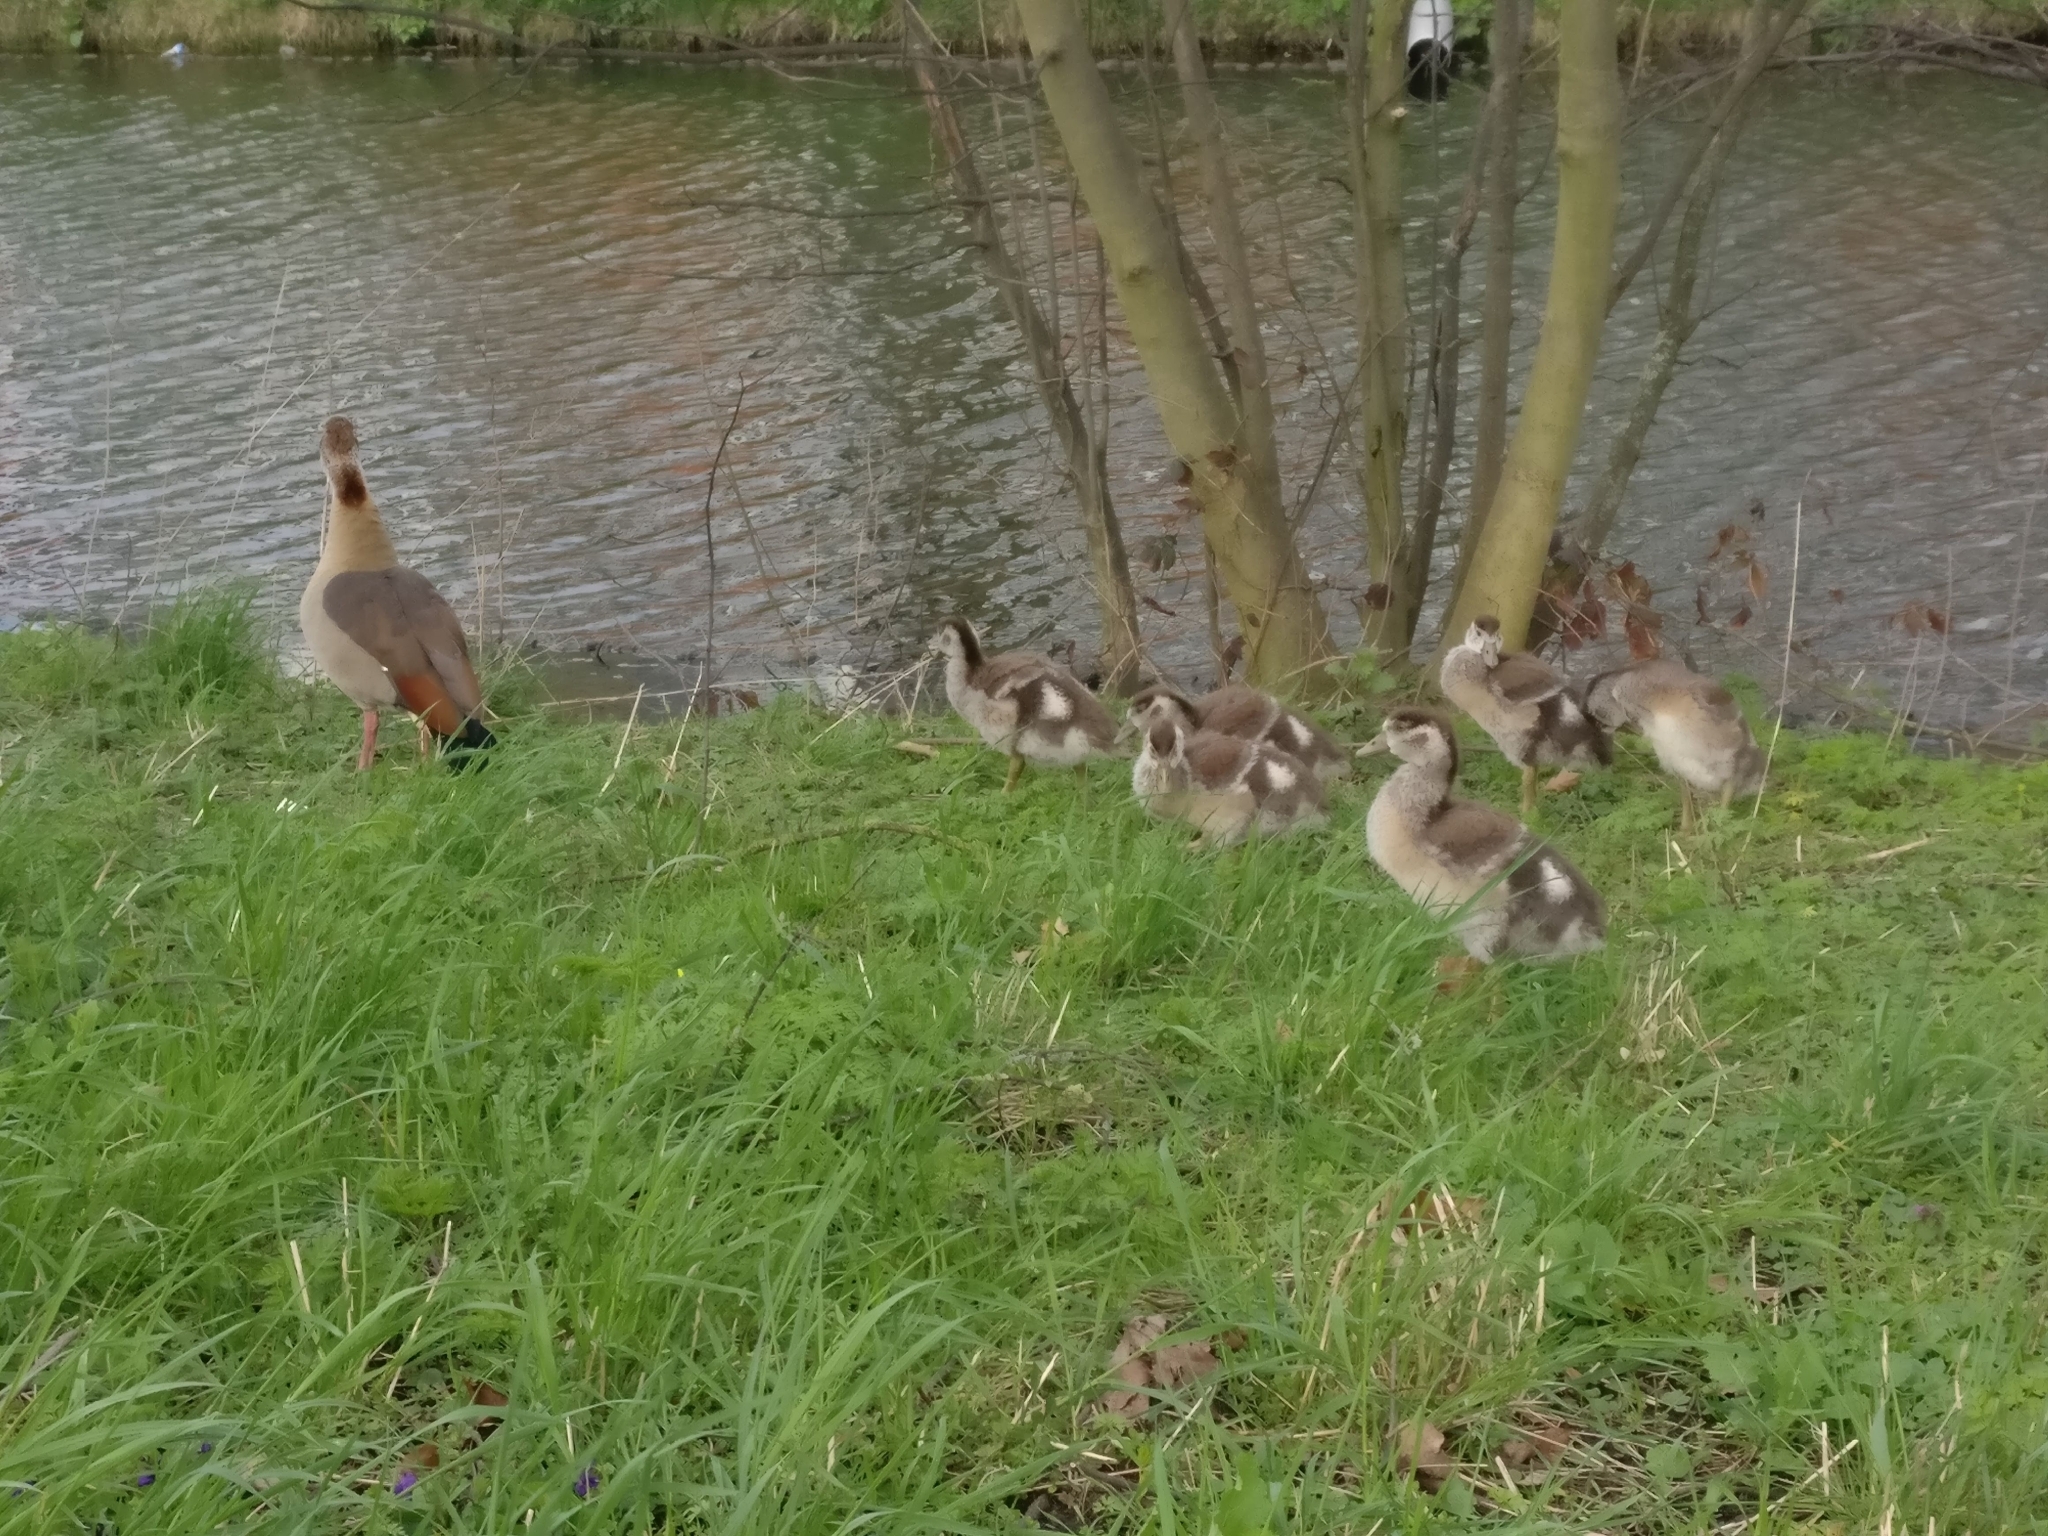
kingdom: Animalia
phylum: Chordata
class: Aves
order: Anseriformes
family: Anatidae
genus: Alopochen
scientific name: Alopochen aegyptiaca
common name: Egyptian goose
